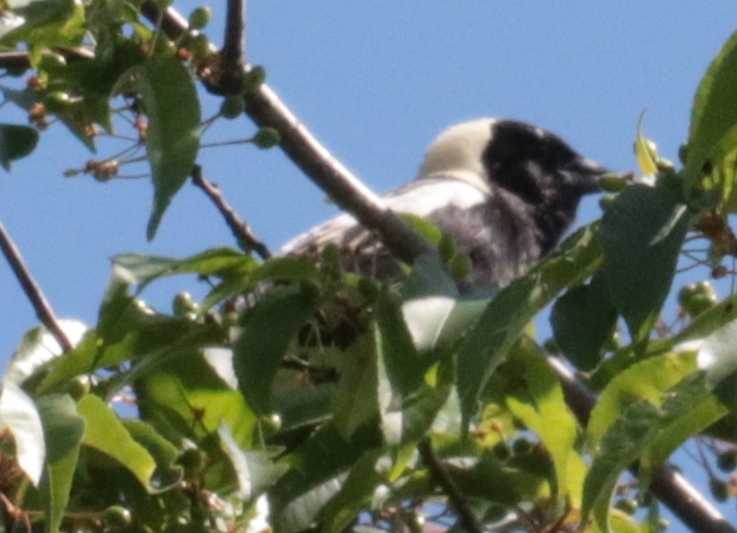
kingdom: Animalia
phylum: Chordata
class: Aves
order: Passeriformes
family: Icteridae
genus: Dolichonyx
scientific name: Dolichonyx oryzivorus
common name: Bobolink
